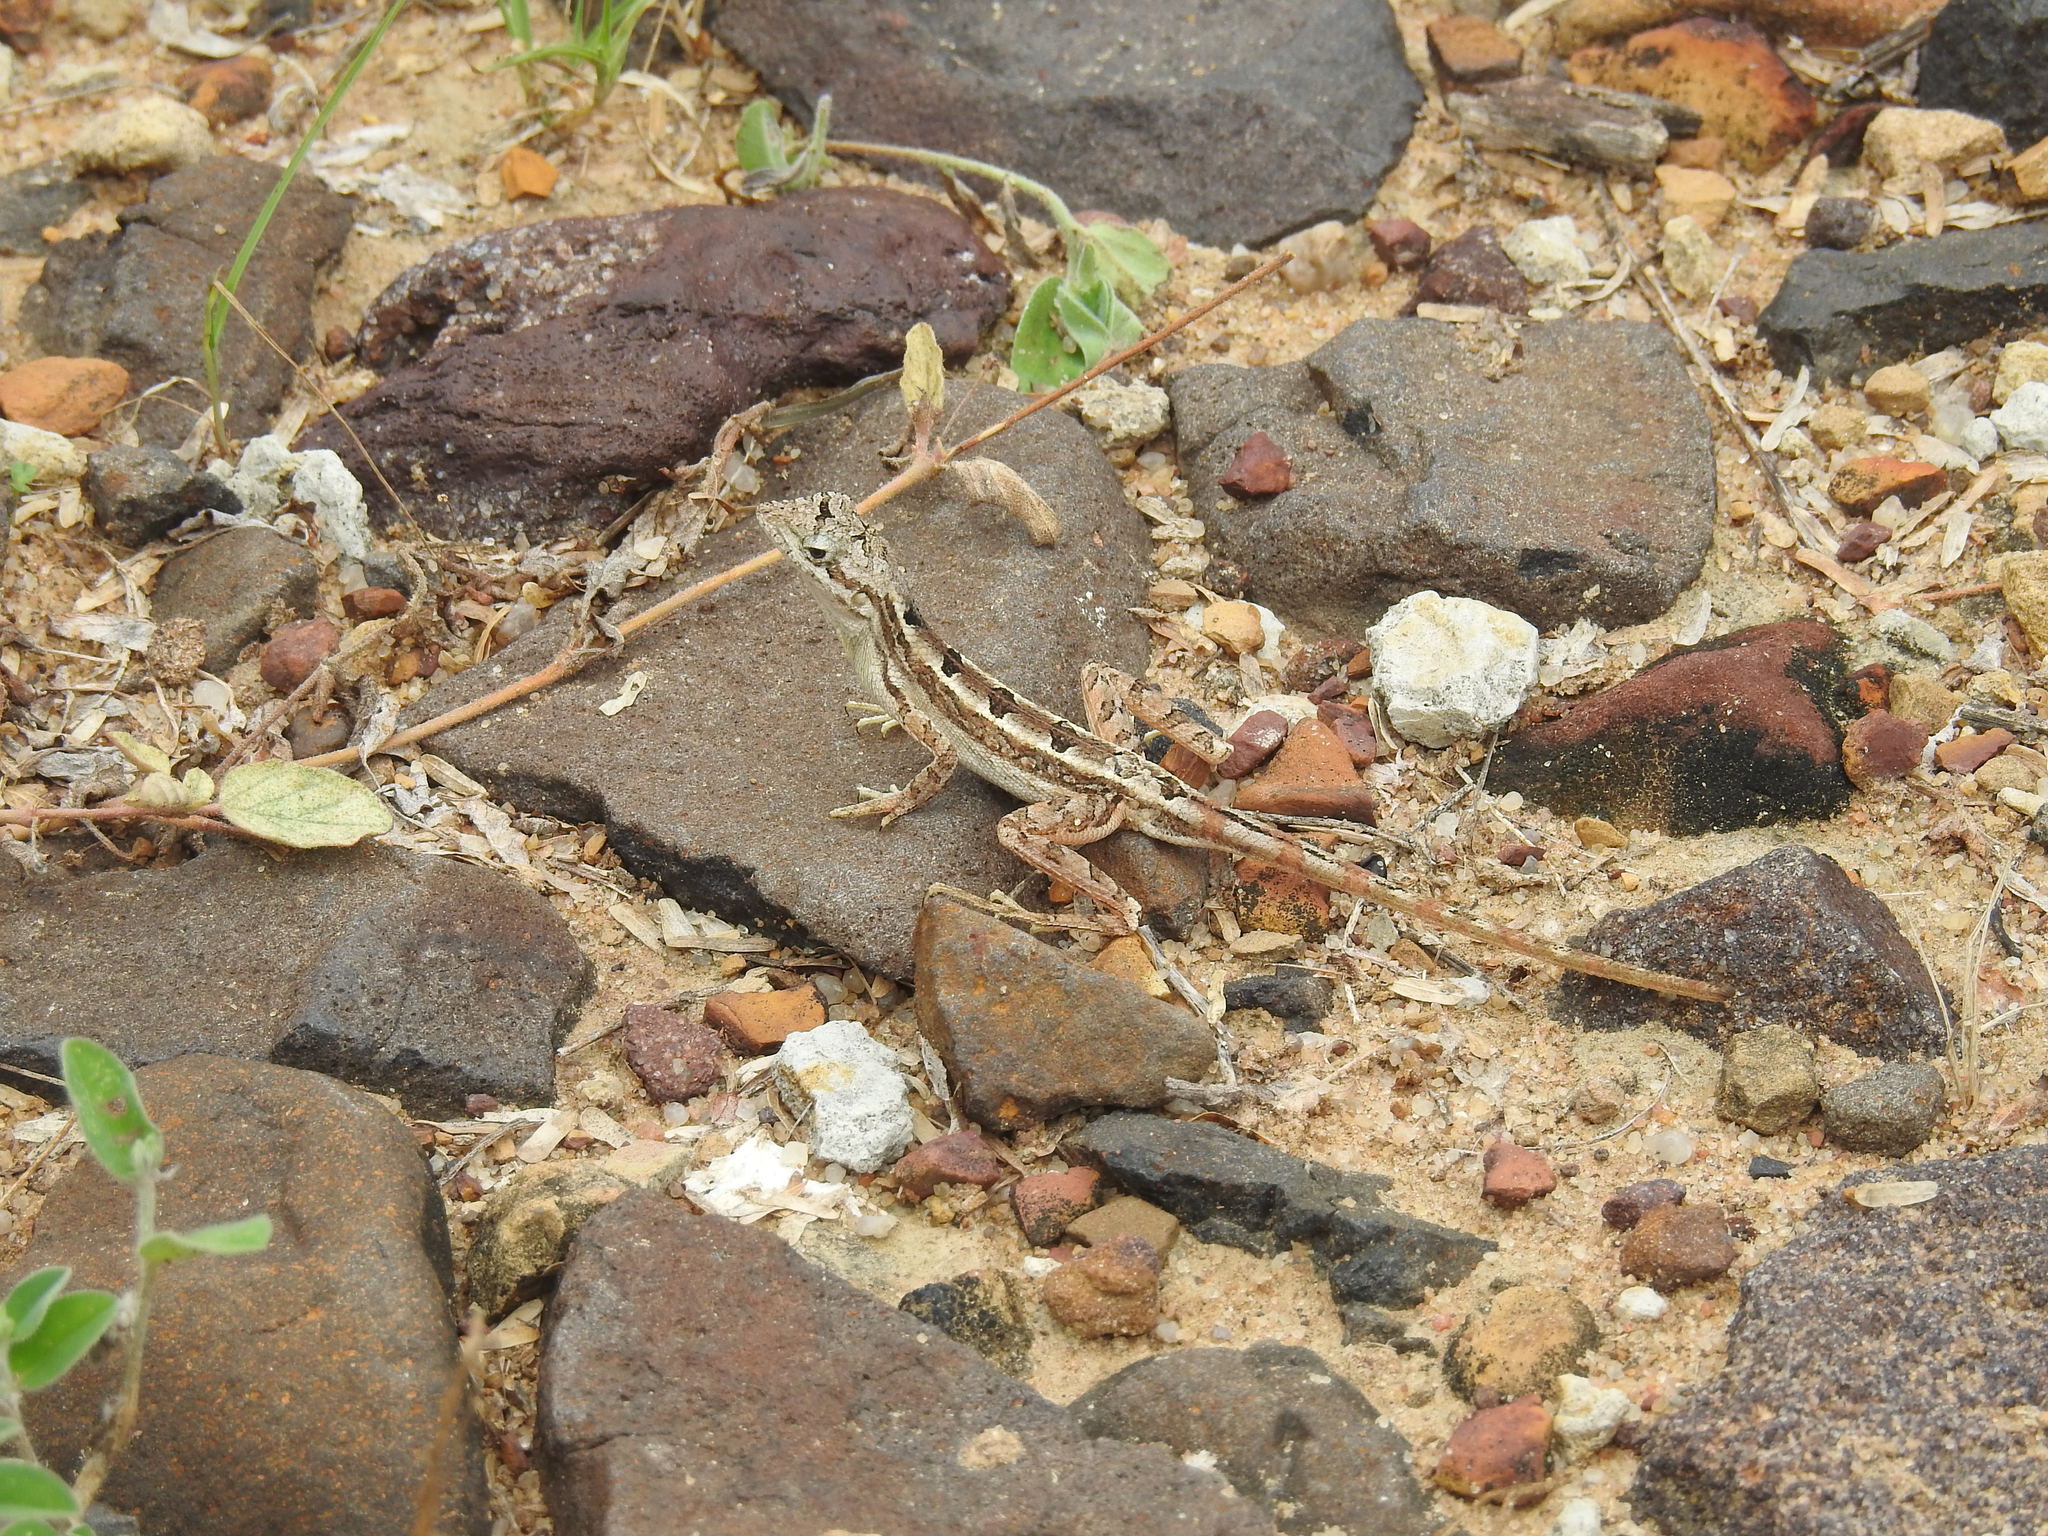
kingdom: Animalia
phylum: Chordata
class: Squamata
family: Agamidae
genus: Sitana
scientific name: Sitana spinaecephalus
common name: Spiny-headed fan-throated lizard
